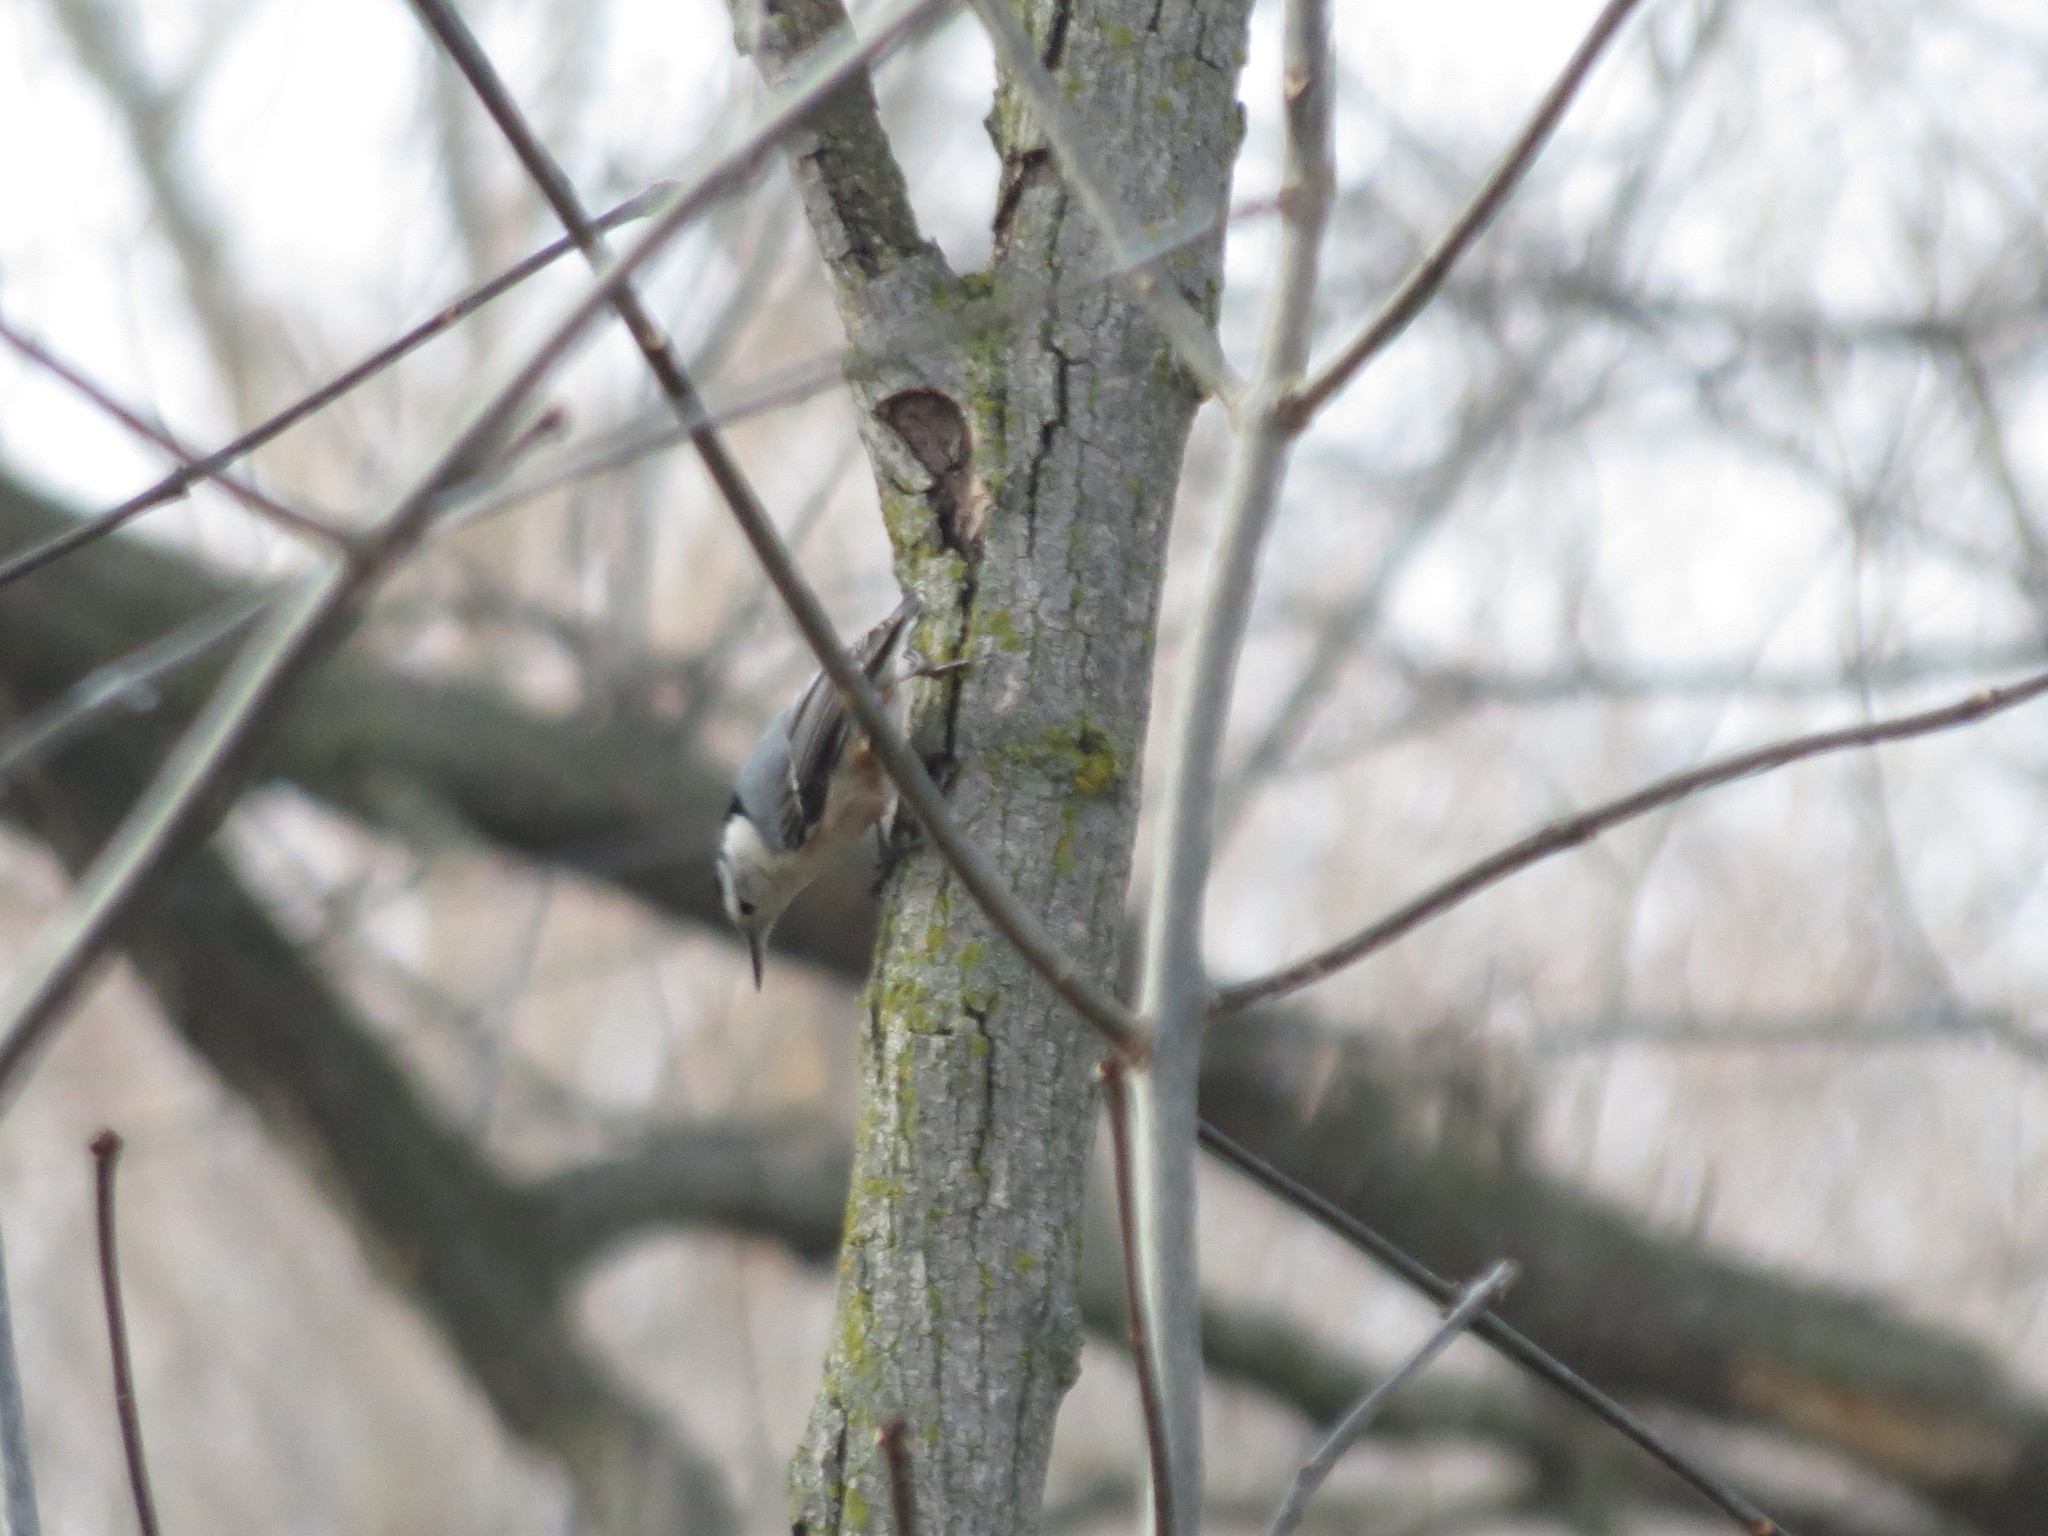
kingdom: Animalia
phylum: Chordata
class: Aves
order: Passeriformes
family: Sittidae
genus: Sitta
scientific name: Sitta carolinensis
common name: White-breasted nuthatch
